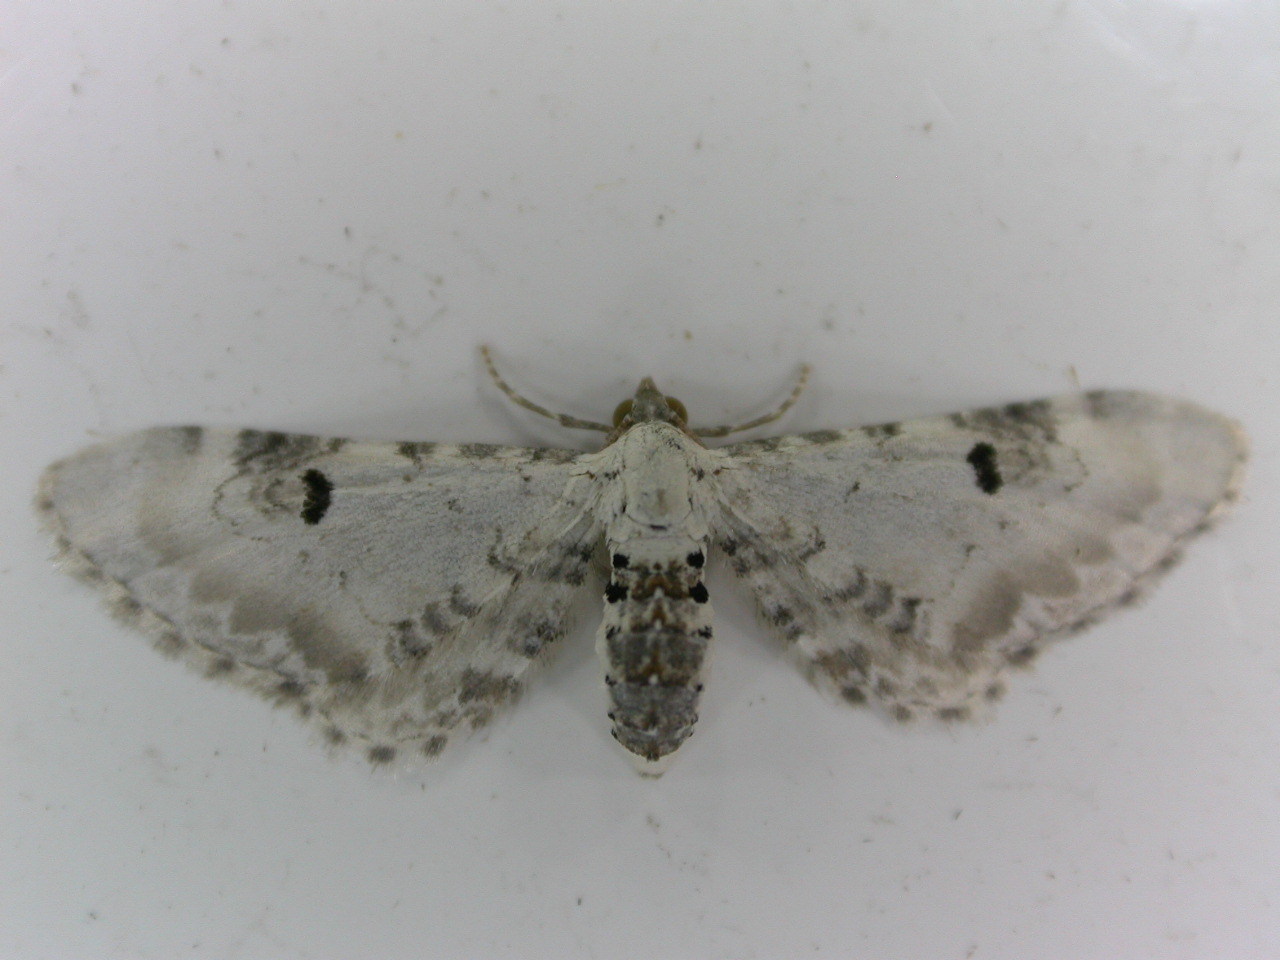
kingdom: Animalia
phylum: Arthropoda
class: Insecta
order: Lepidoptera
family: Geometridae
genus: Eupithecia
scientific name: Eupithecia centaureata
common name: Lime-speck pug
